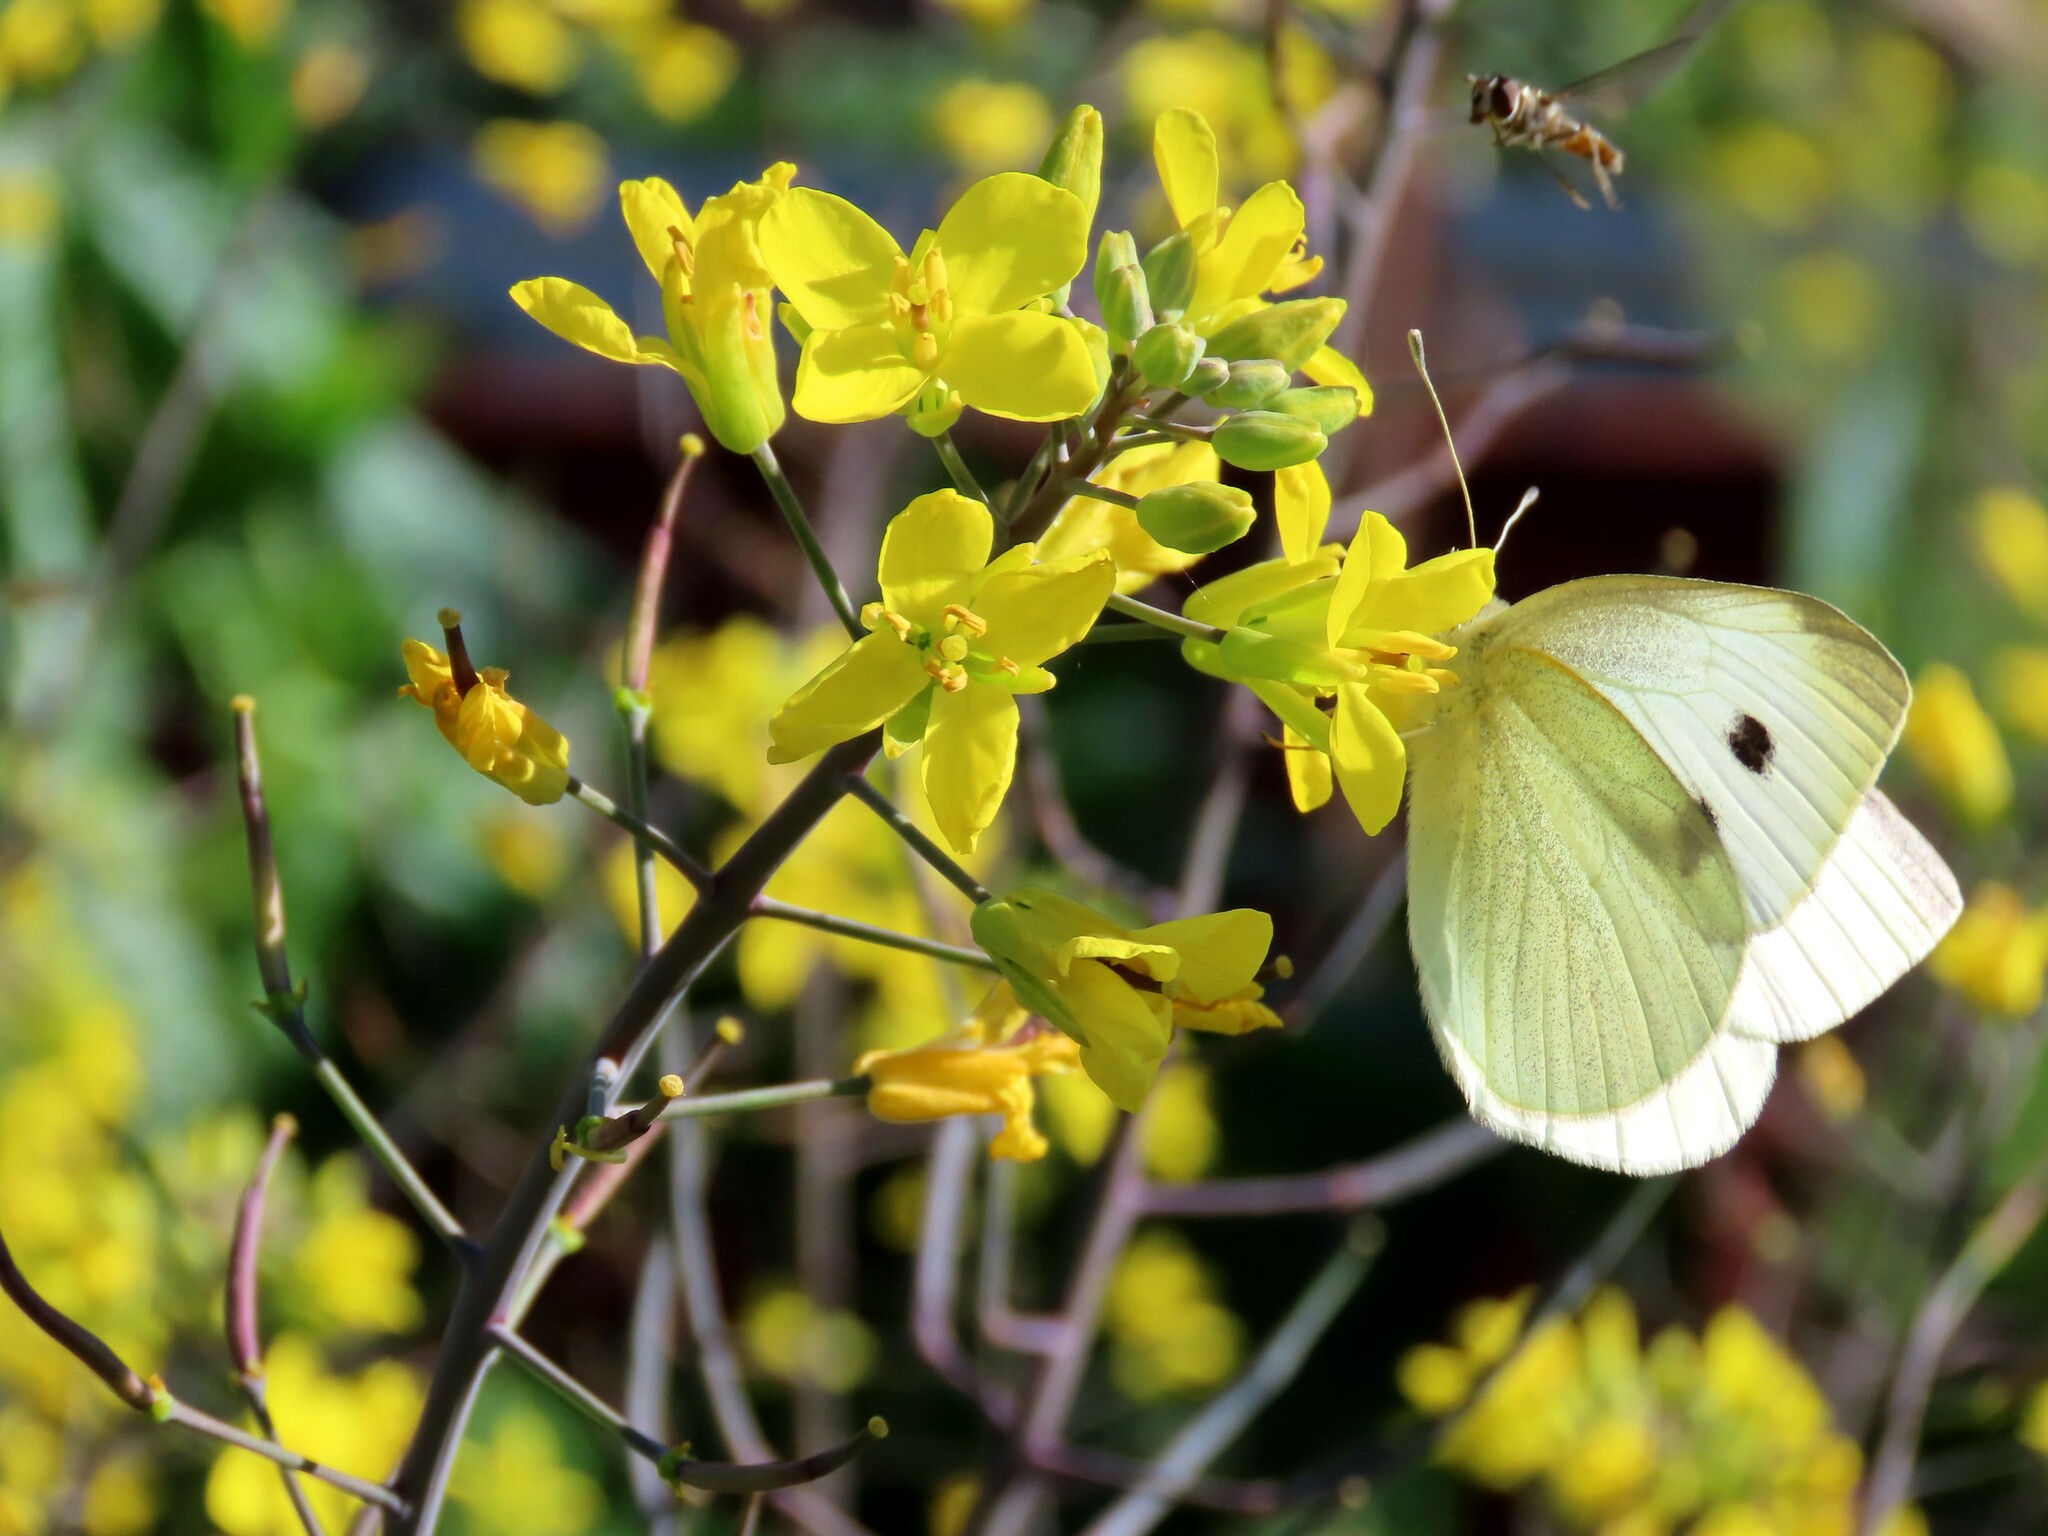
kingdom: Animalia
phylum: Arthropoda
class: Insecta
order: Lepidoptera
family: Pieridae
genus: Pieris
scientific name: Pieris rapae
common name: Small white
